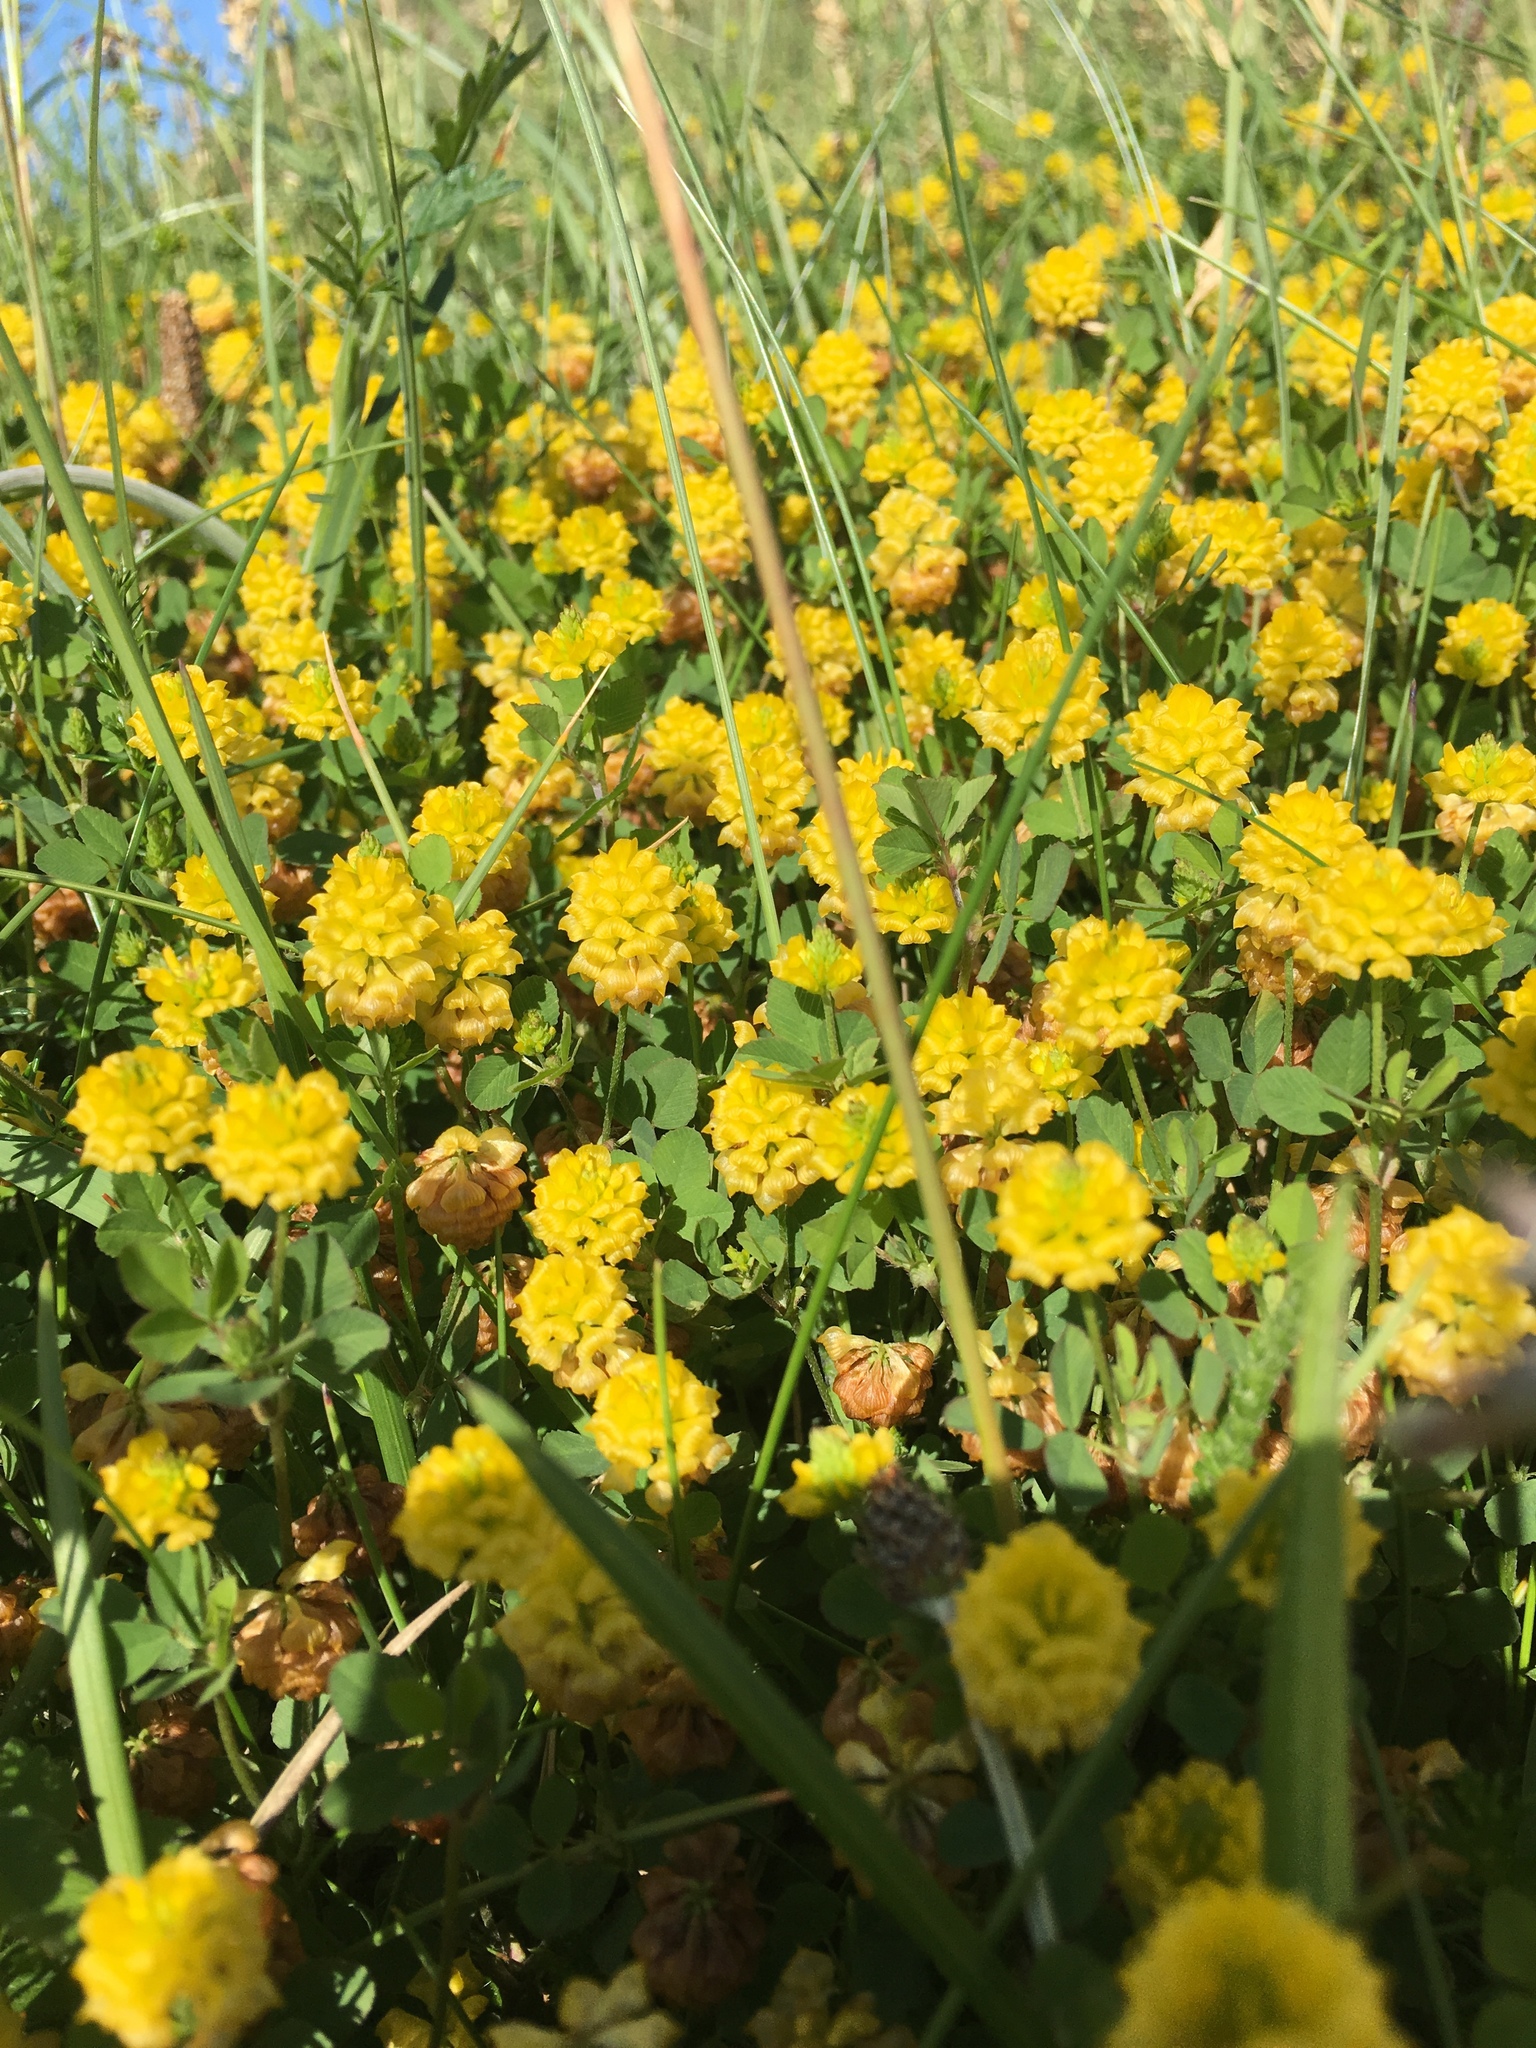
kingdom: Plantae
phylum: Tracheophyta
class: Magnoliopsida
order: Fabales
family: Fabaceae
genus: Trifolium
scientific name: Trifolium campestre
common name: Field clover
